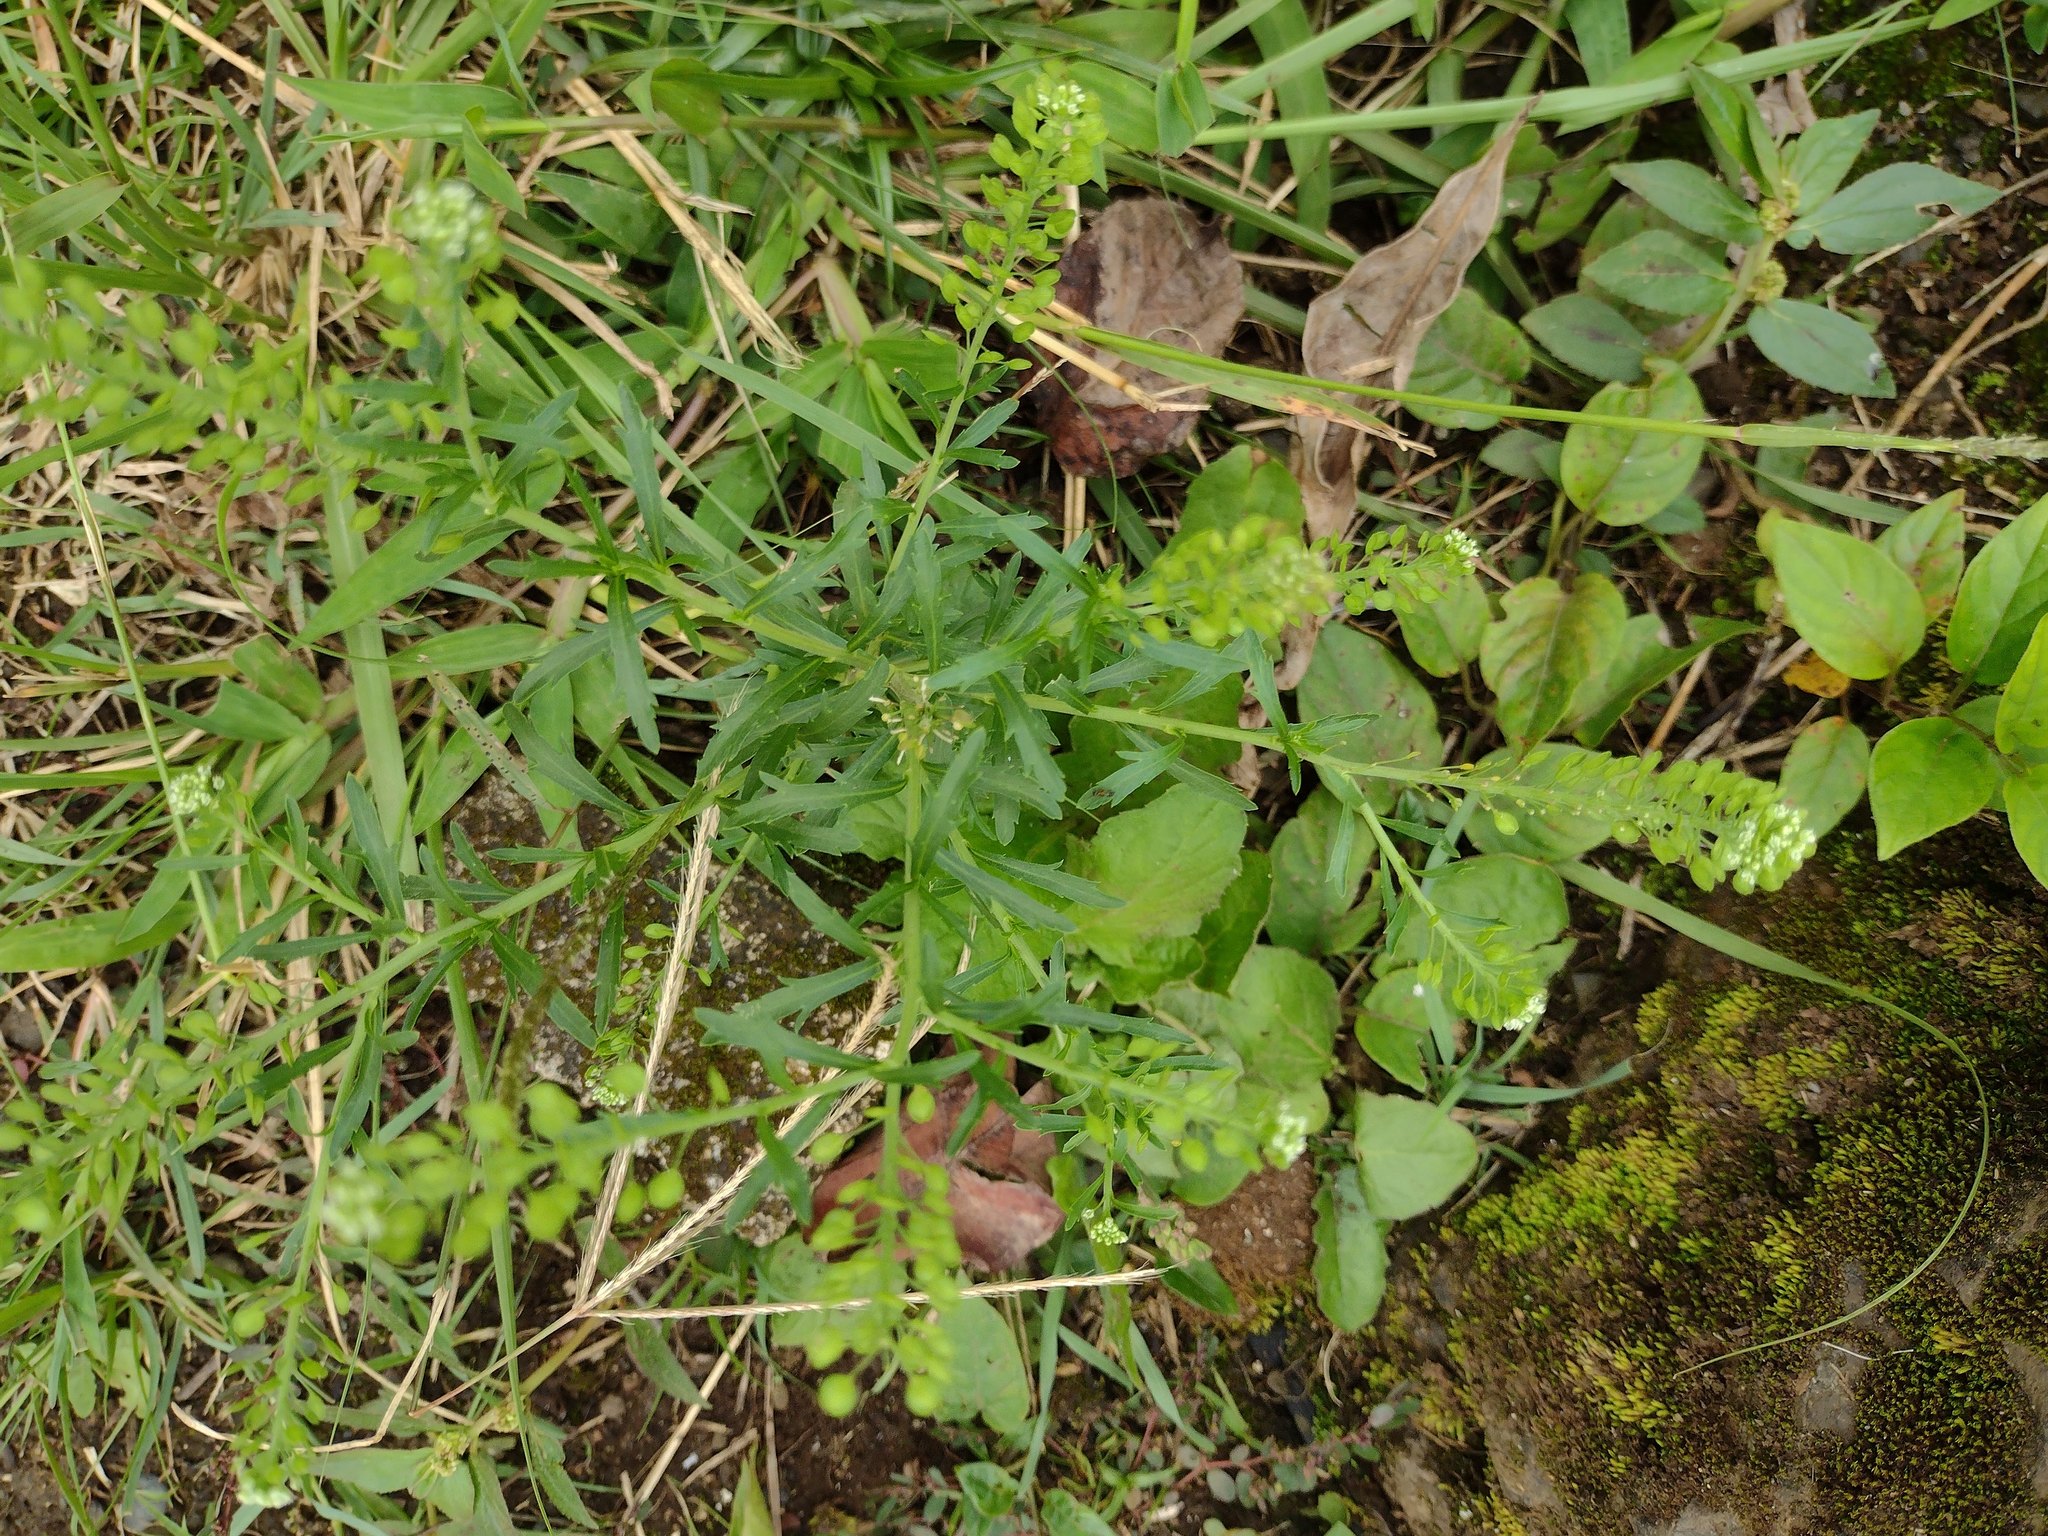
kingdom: Plantae
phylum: Tracheophyta
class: Magnoliopsida
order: Brassicales
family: Brassicaceae
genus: Lepidium
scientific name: Lepidium virginicum
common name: Least pepperwort
